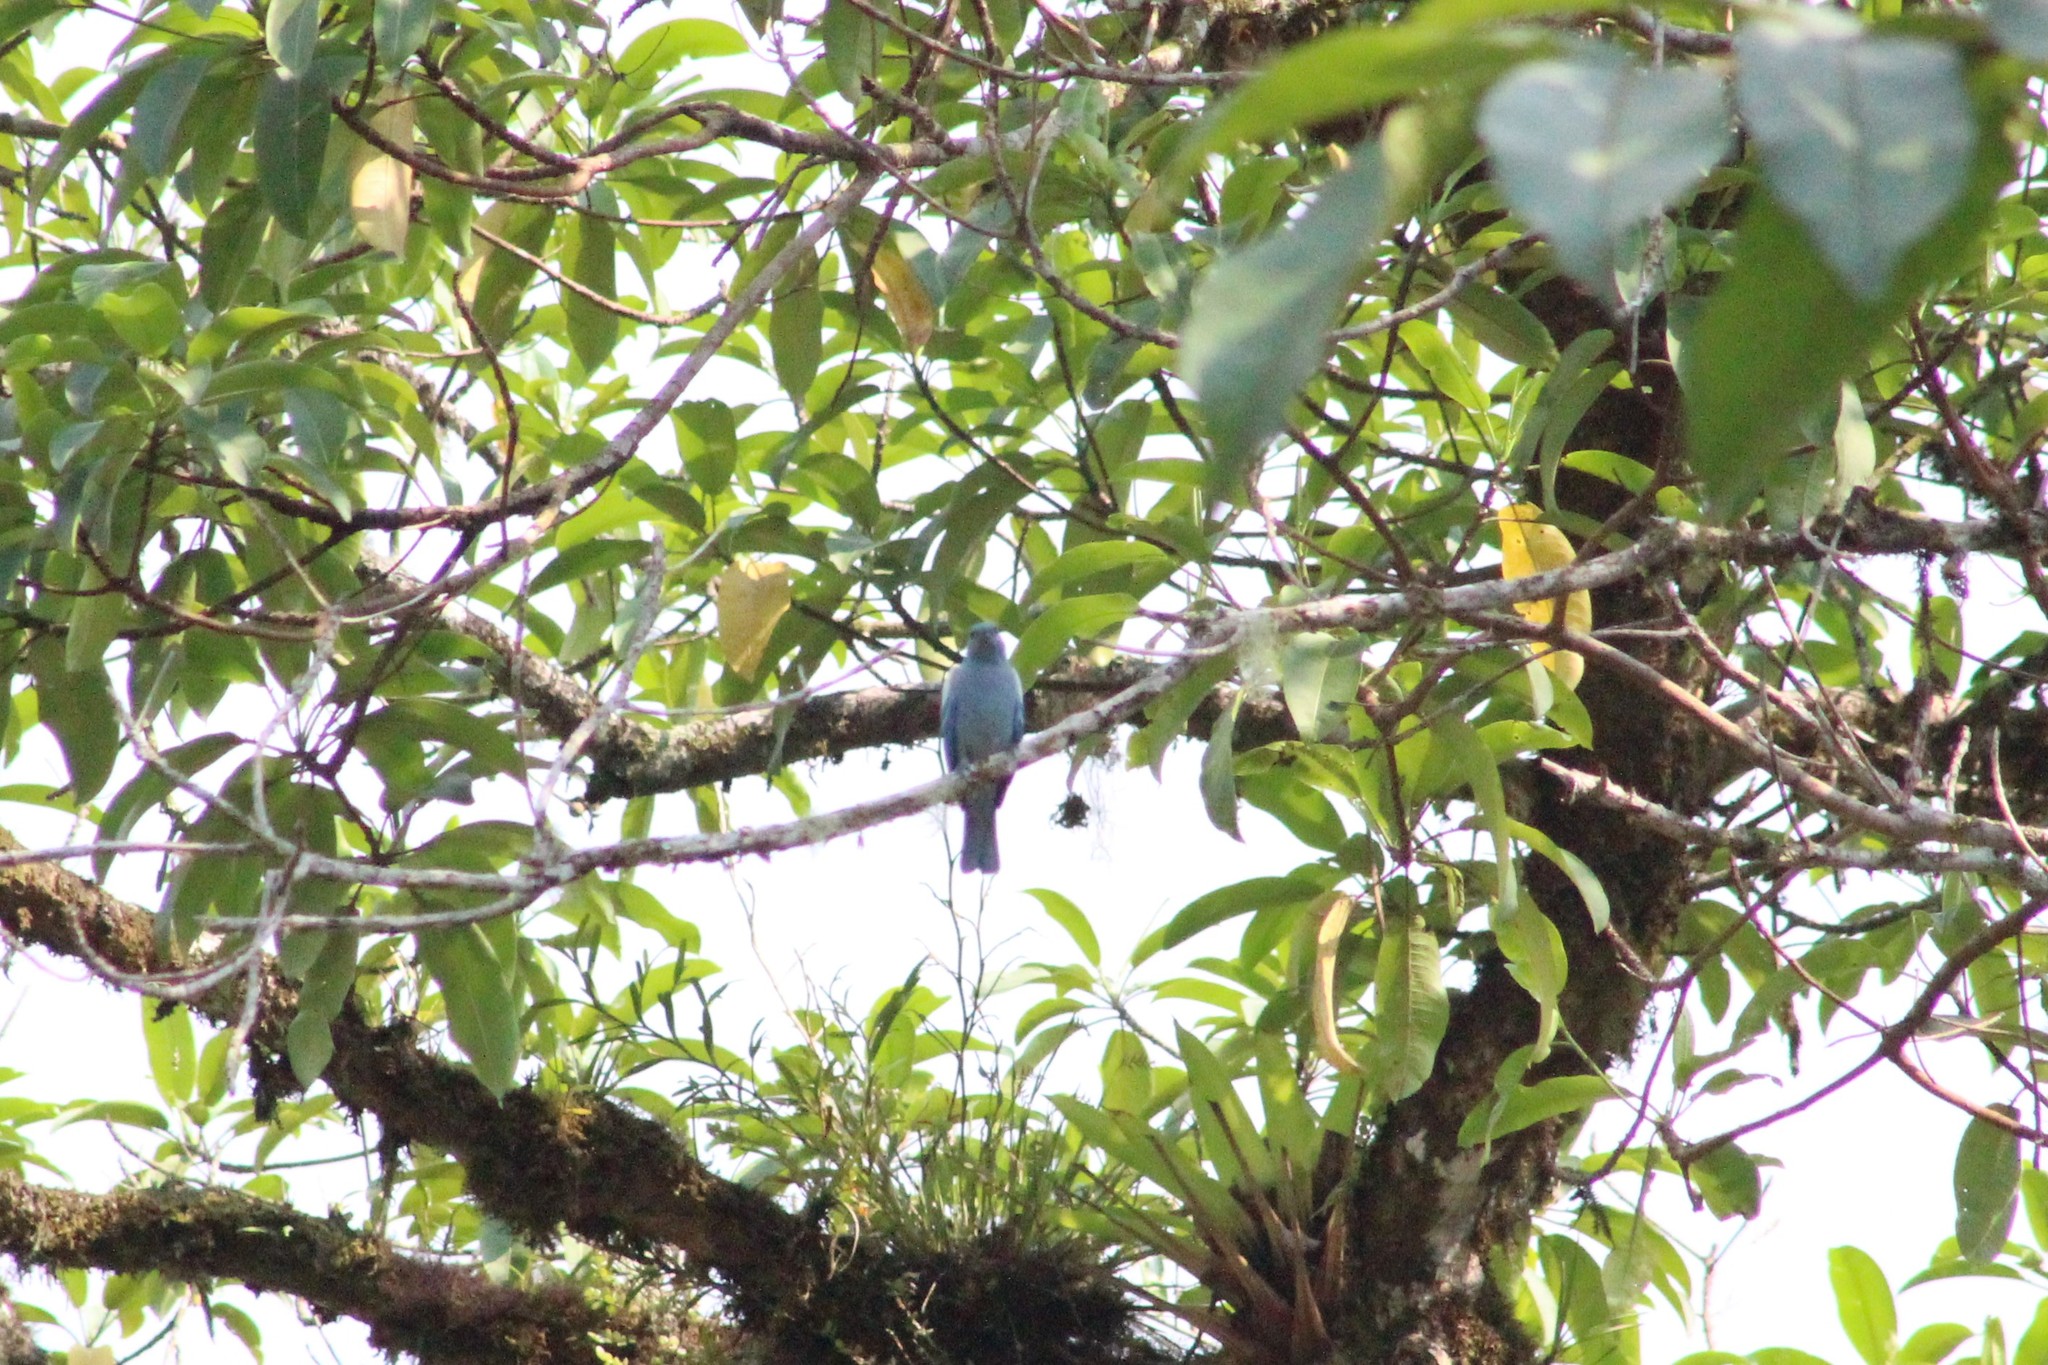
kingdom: Animalia
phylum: Chordata
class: Aves
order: Passeriformes
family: Thraupidae
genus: Thraupis
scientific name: Thraupis episcopus
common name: Blue-grey tanager
